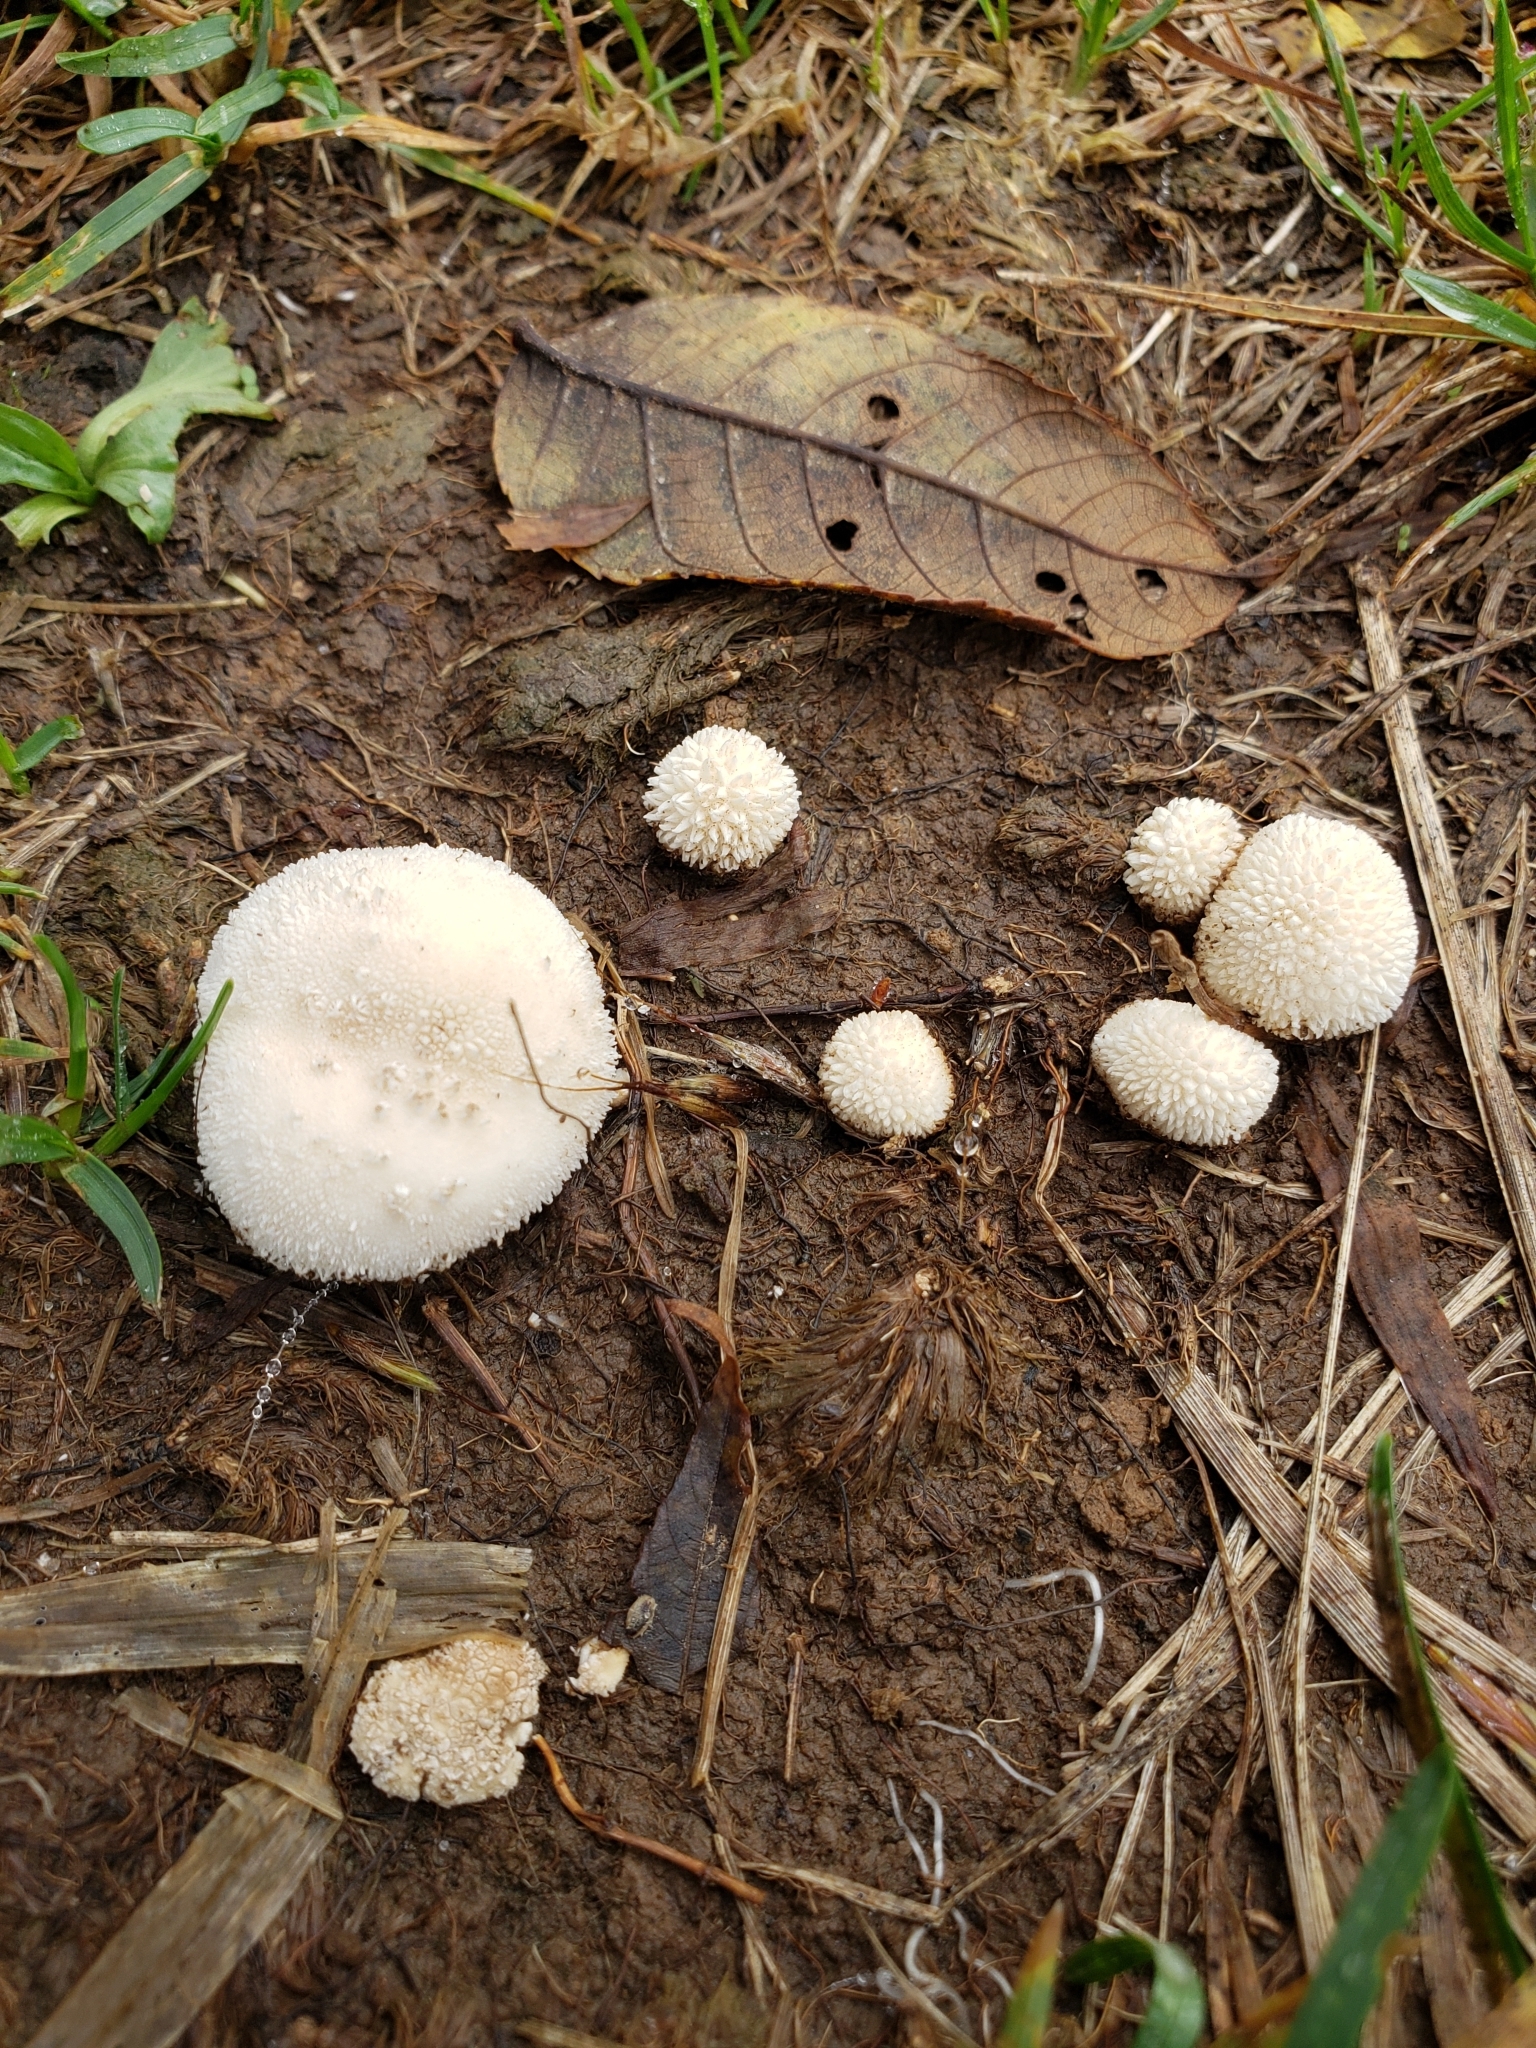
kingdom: Fungi
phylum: Basidiomycota
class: Agaricomycetes
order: Agaricales
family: Agaricaceae
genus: Lycoperdon
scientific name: Lycoperdon marginatum
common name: Peeling puffball
